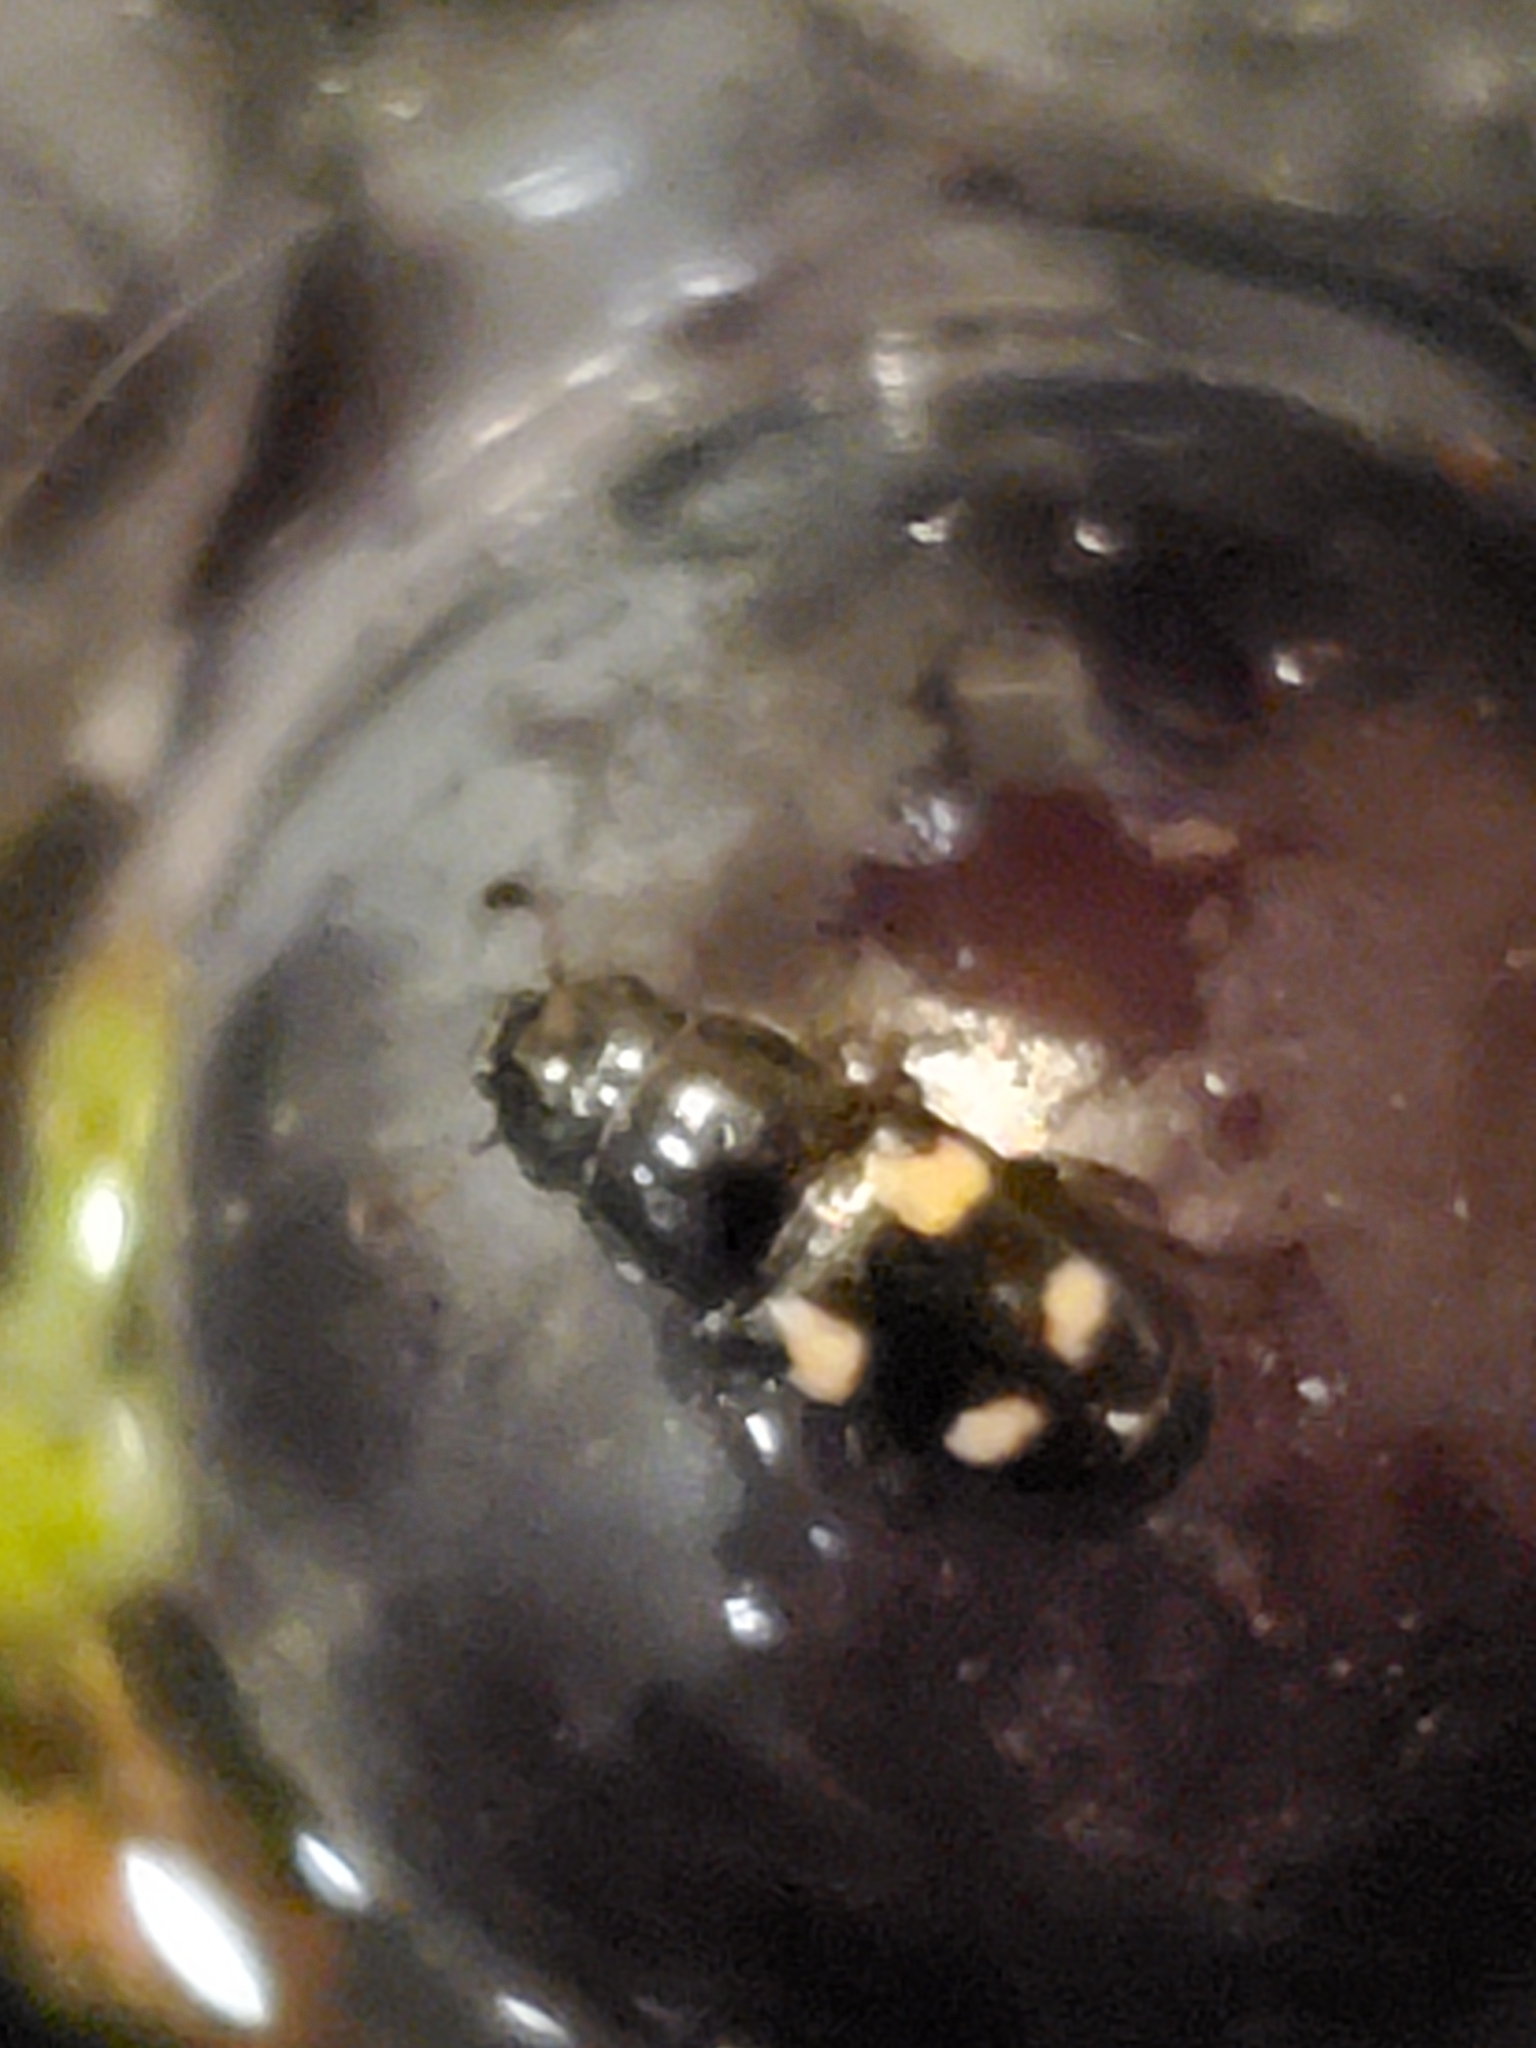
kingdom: Animalia
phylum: Arthropoda
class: Insecta
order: Coleoptera
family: Nitidulidae
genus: Glischrochilus
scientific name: Glischrochilus quadrisignatus
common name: Picnic beetle
